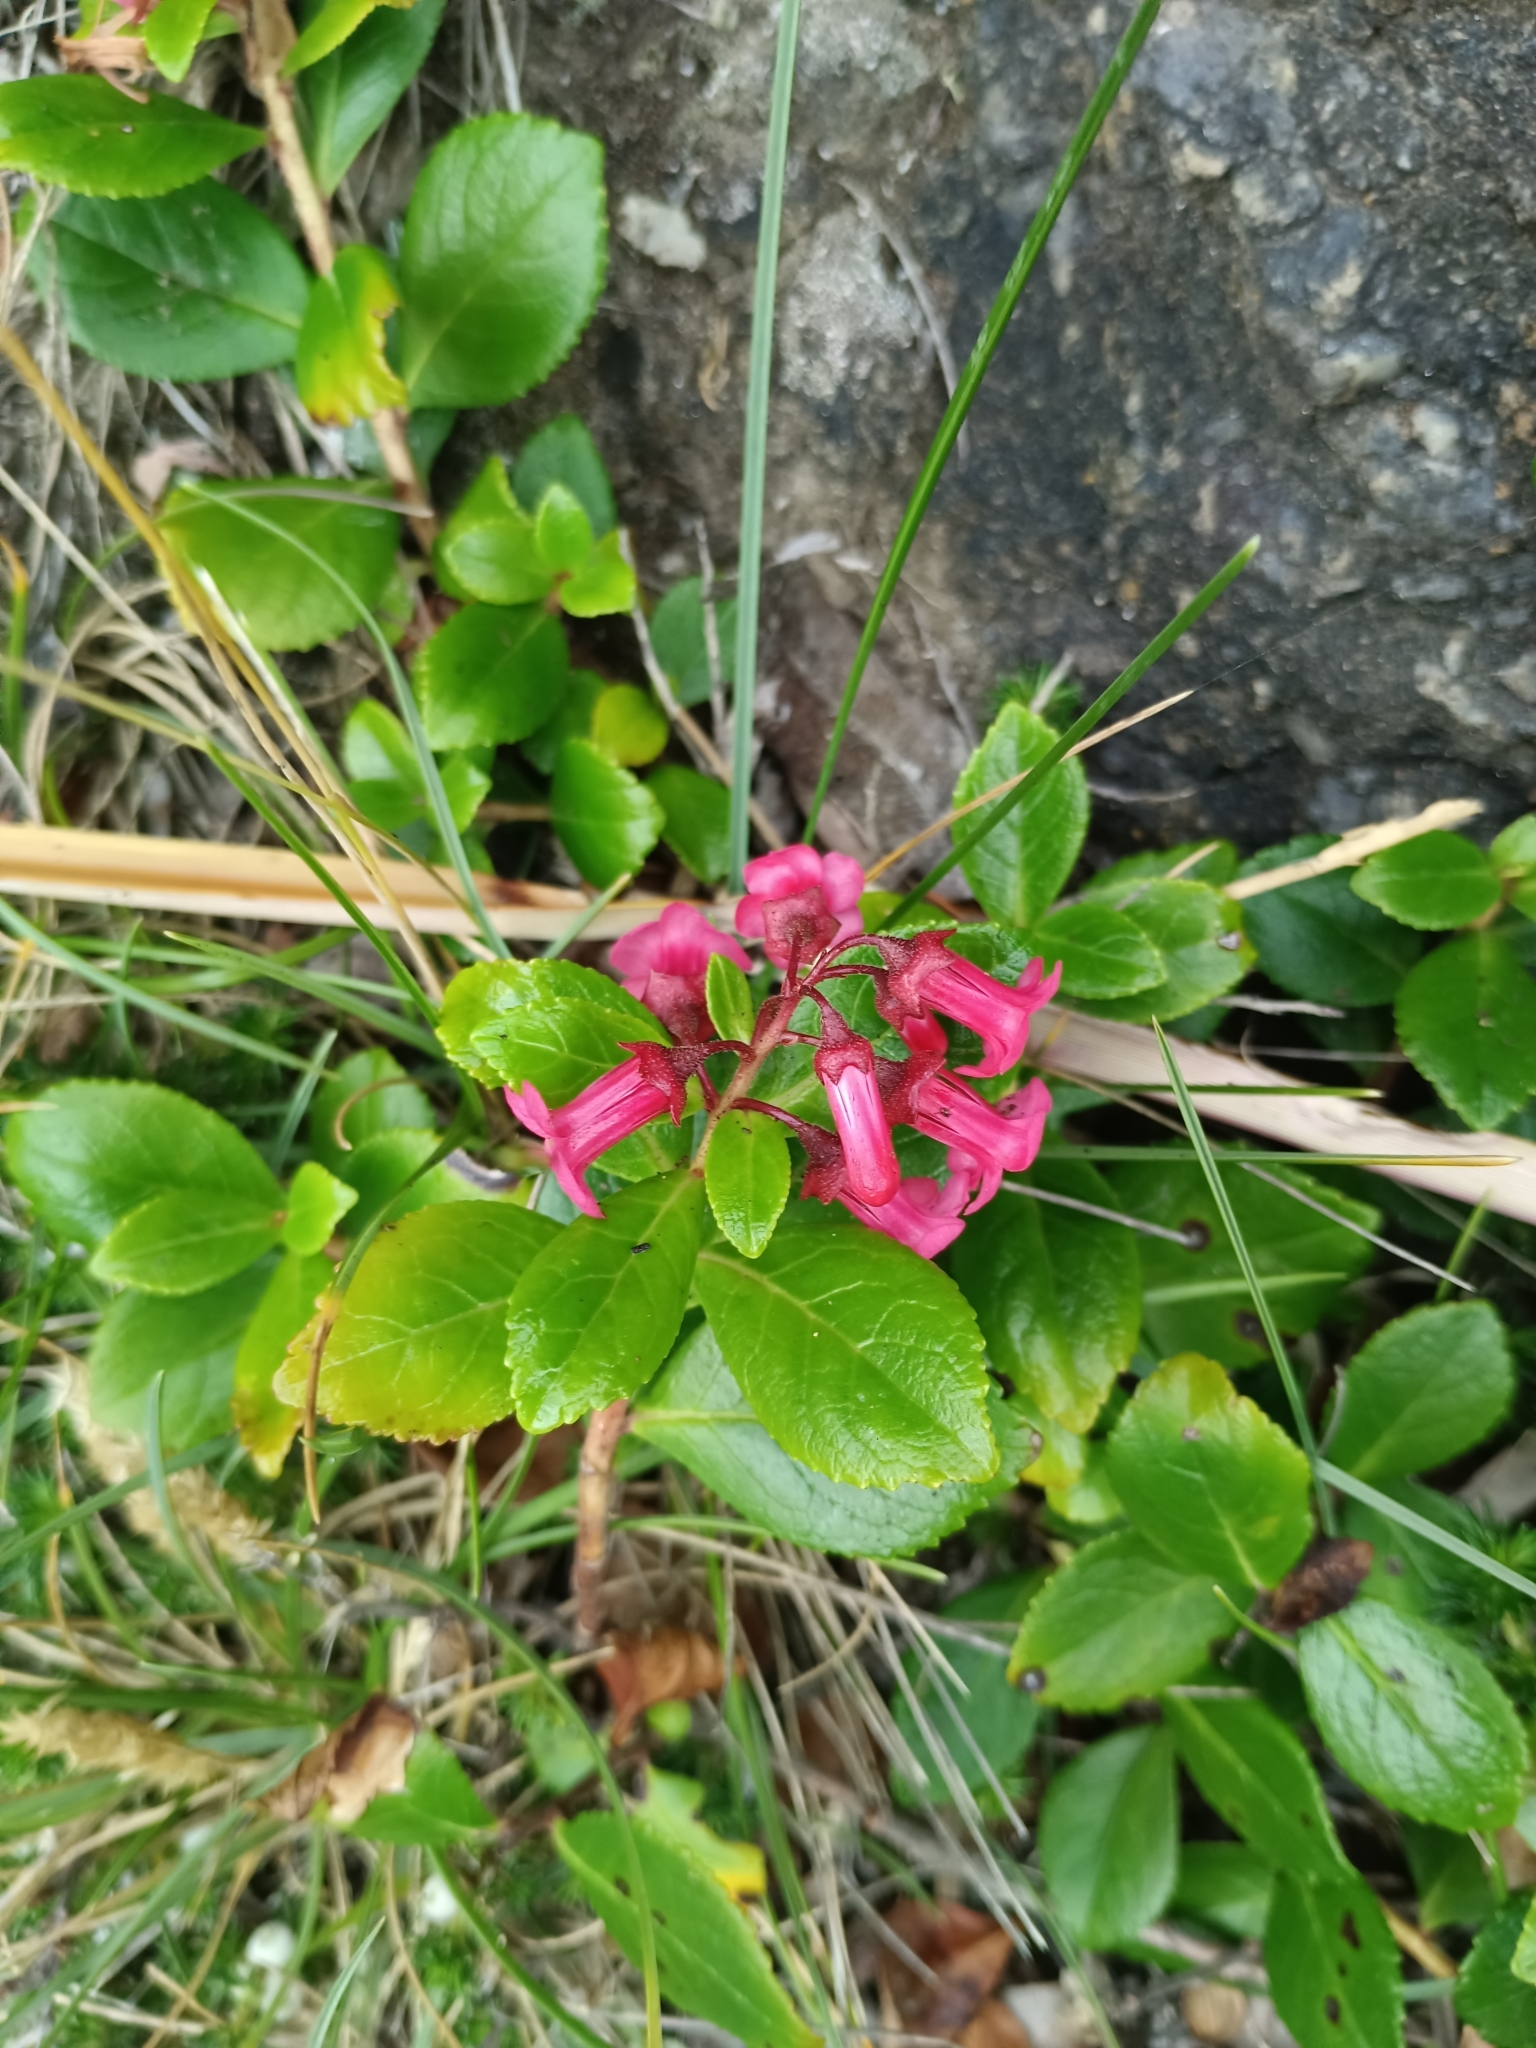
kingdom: Plantae
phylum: Tracheophyta
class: Magnoliopsida
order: Escalloniales
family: Escalloniaceae
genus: Escallonia
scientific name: Escallonia rubra
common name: Redclaws
